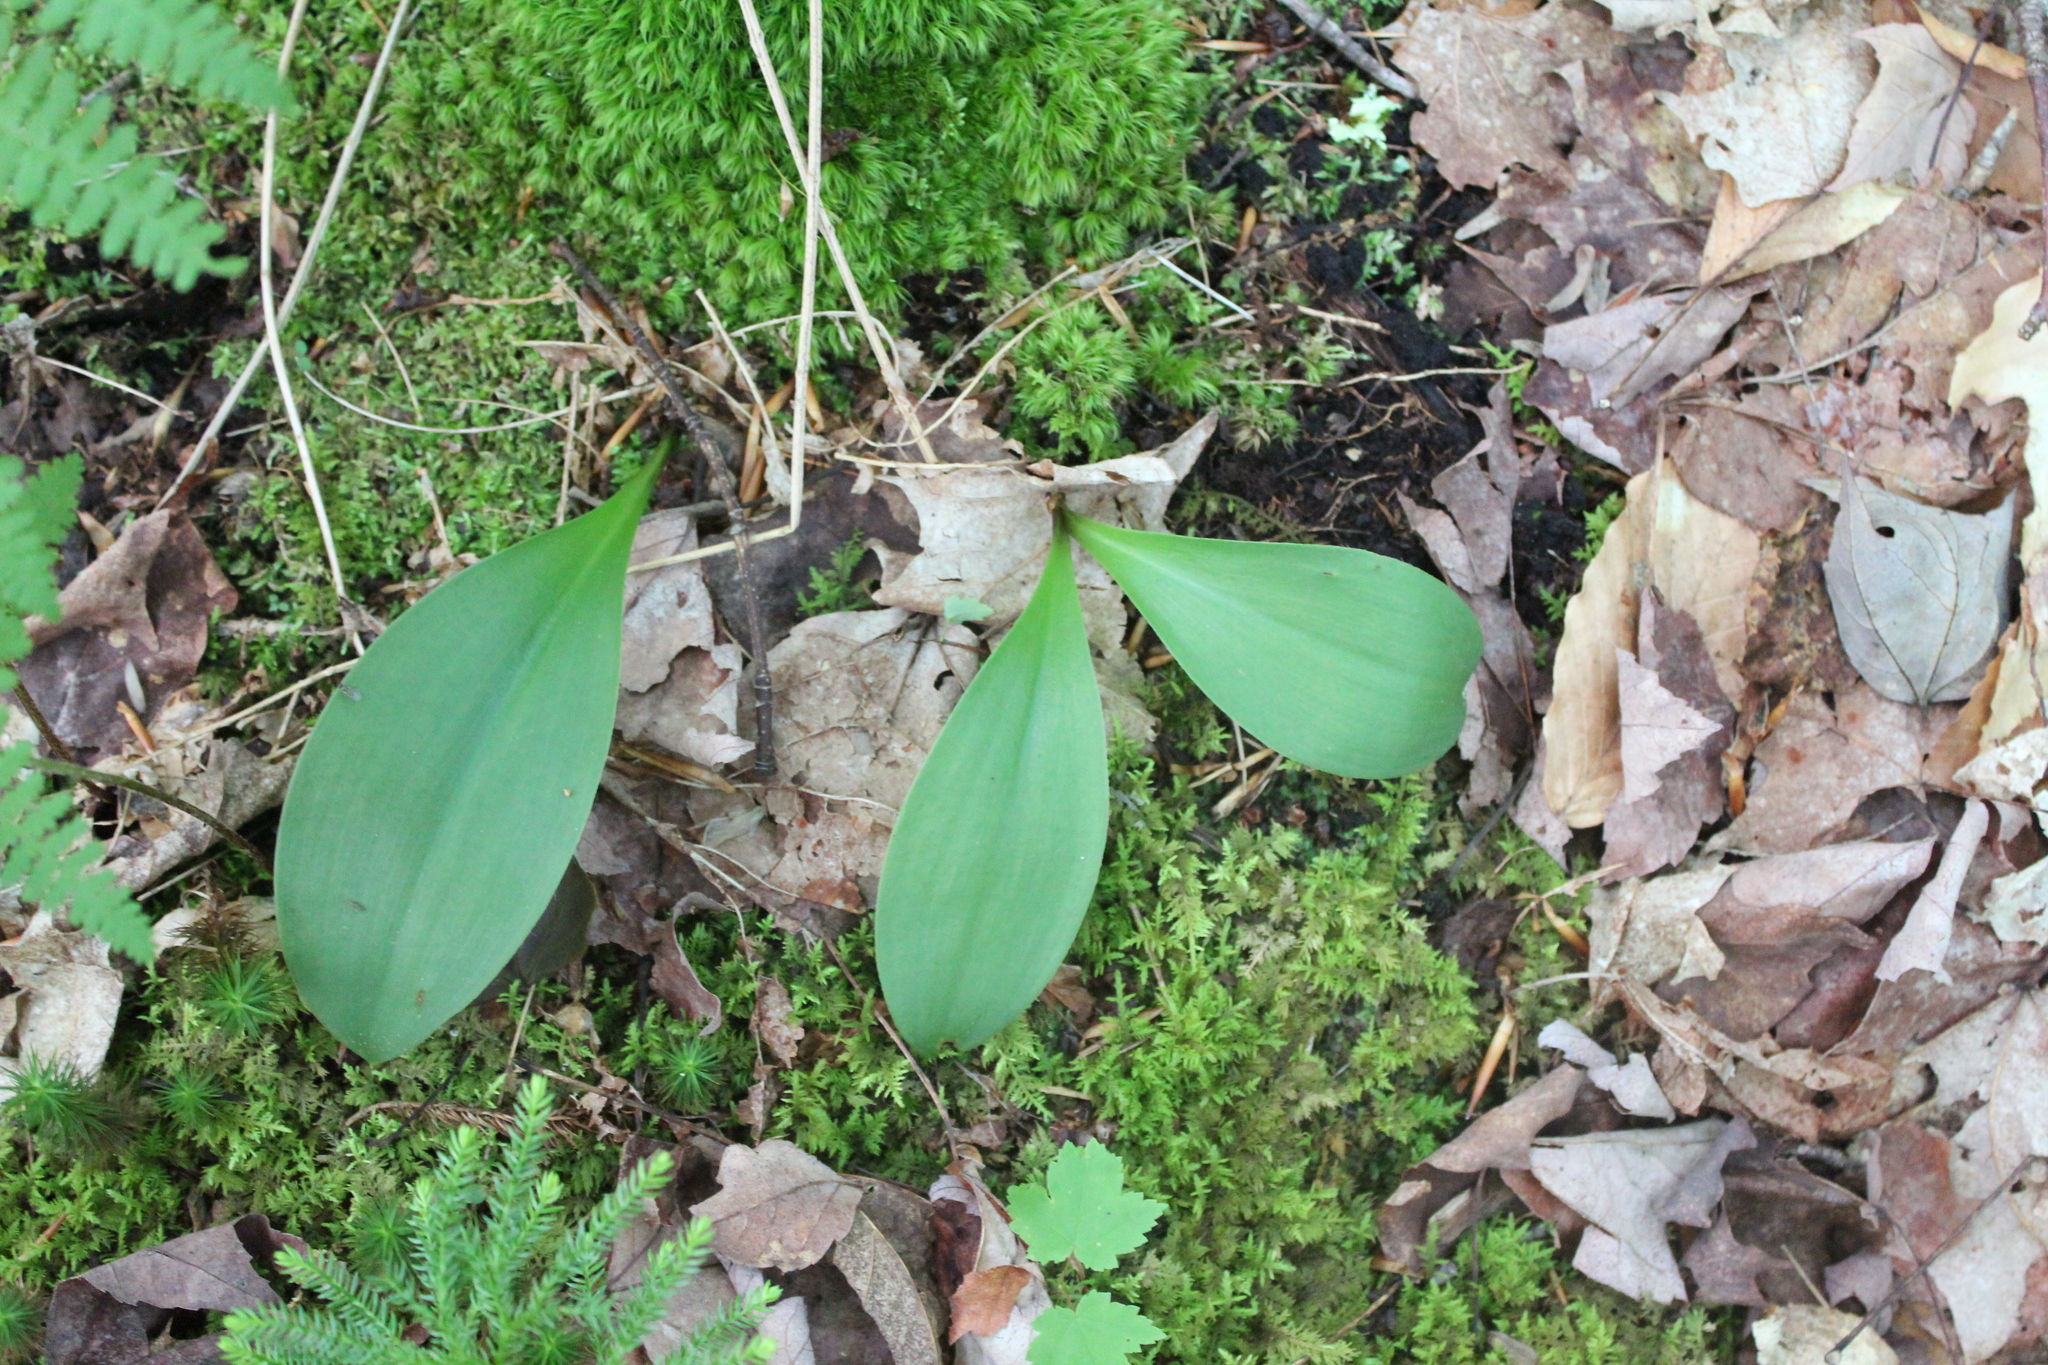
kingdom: Plantae
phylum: Tracheophyta
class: Liliopsida
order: Liliales
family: Liliaceae
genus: Clintonia
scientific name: Clintonia borealis
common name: Yellow clintonia
